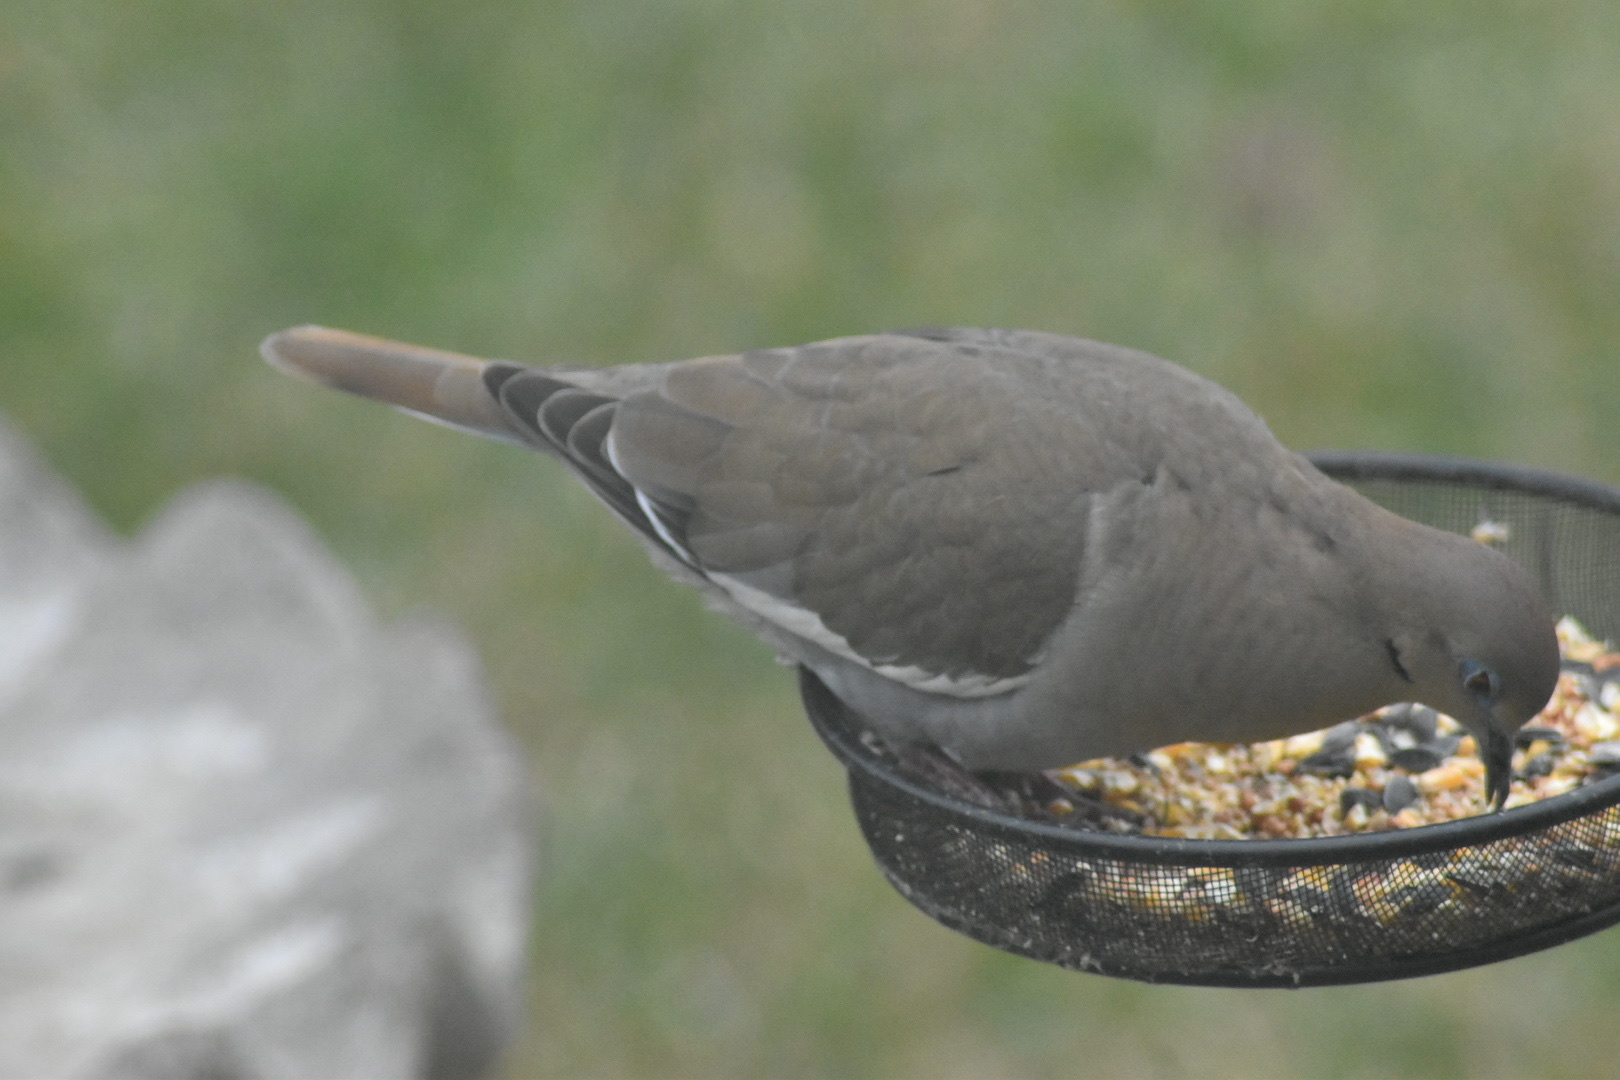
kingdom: Animalia
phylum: Chordata
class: Aves
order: Columbiformes
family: Columbidae
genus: Zenaida
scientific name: Zenaida asiatica
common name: White-winged dove
